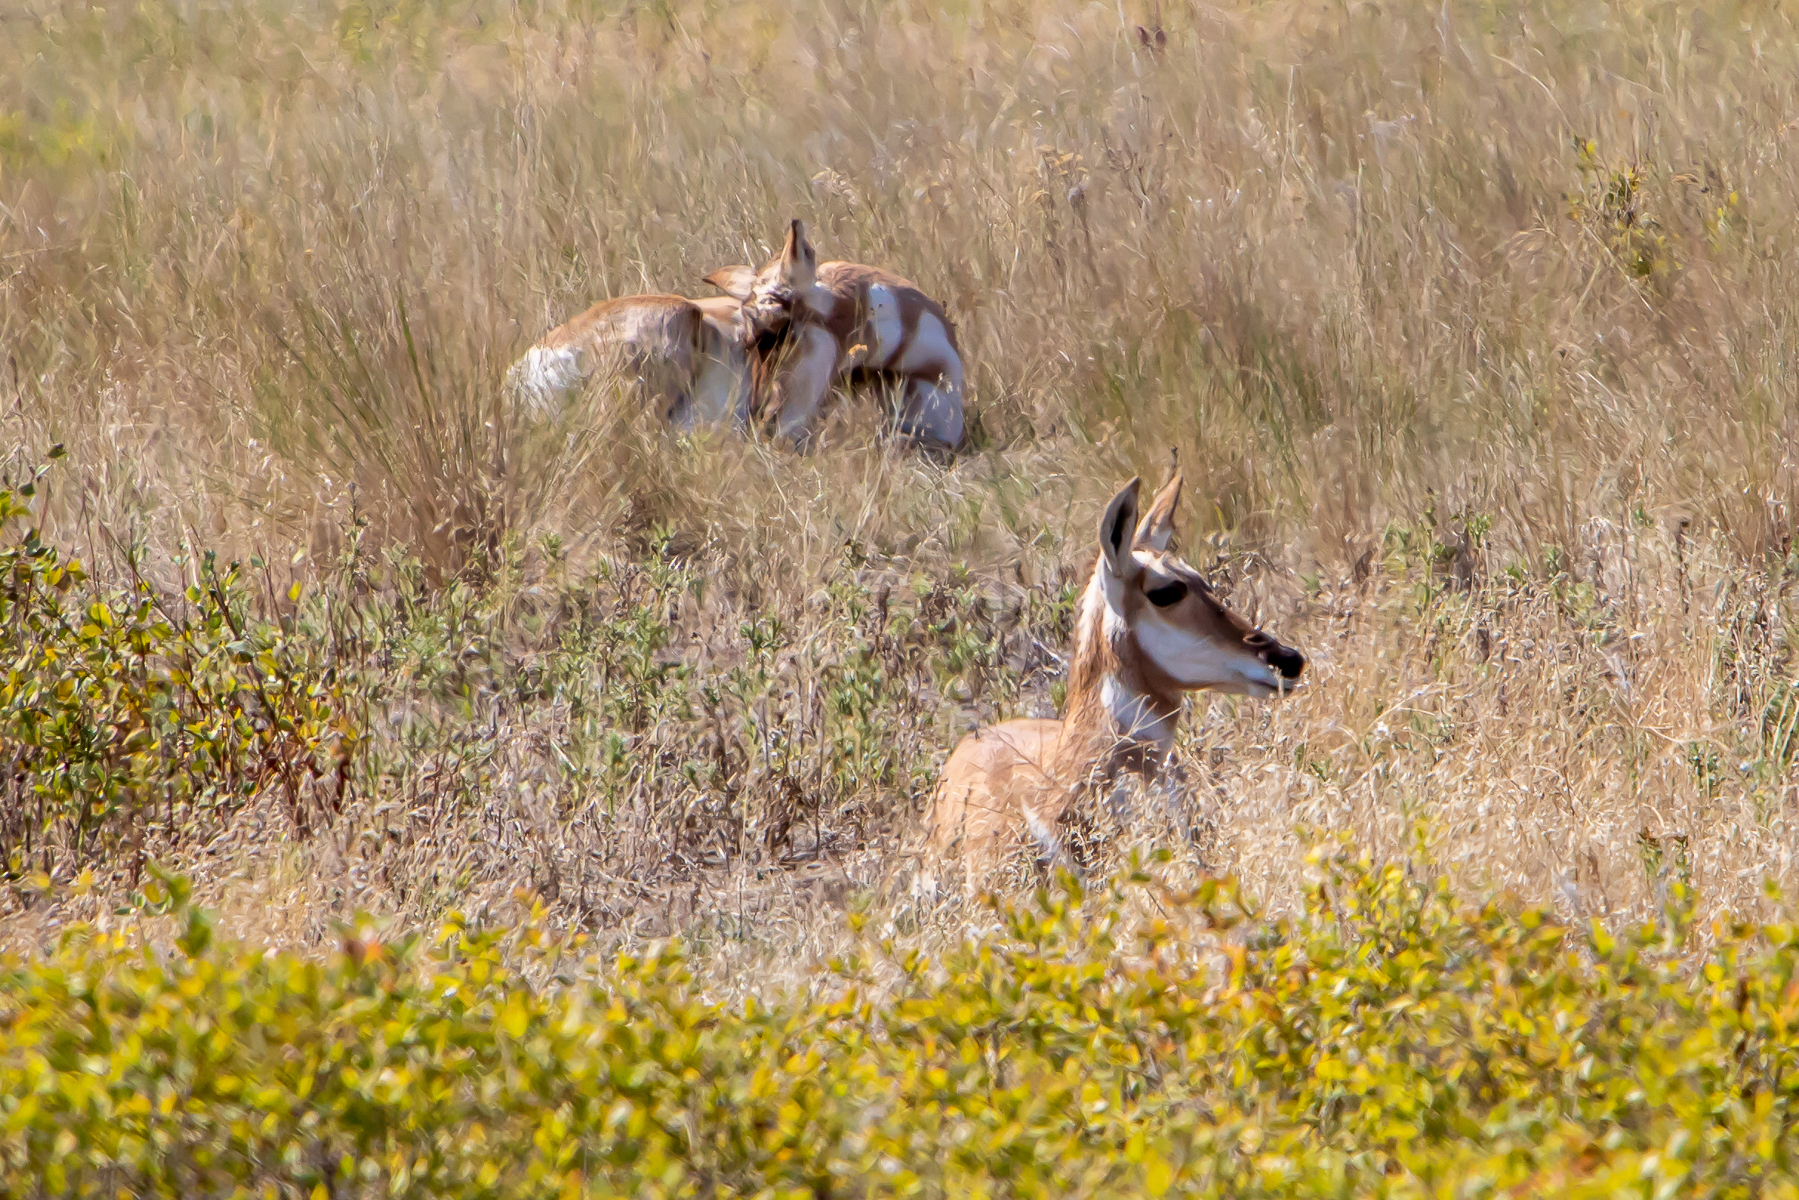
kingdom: Animalia
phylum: Chordata
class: Mammalia
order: Artiodactyla
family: Antilocapridae
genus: Antilocapra
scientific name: Antilocapra americana
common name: Pronghorn
